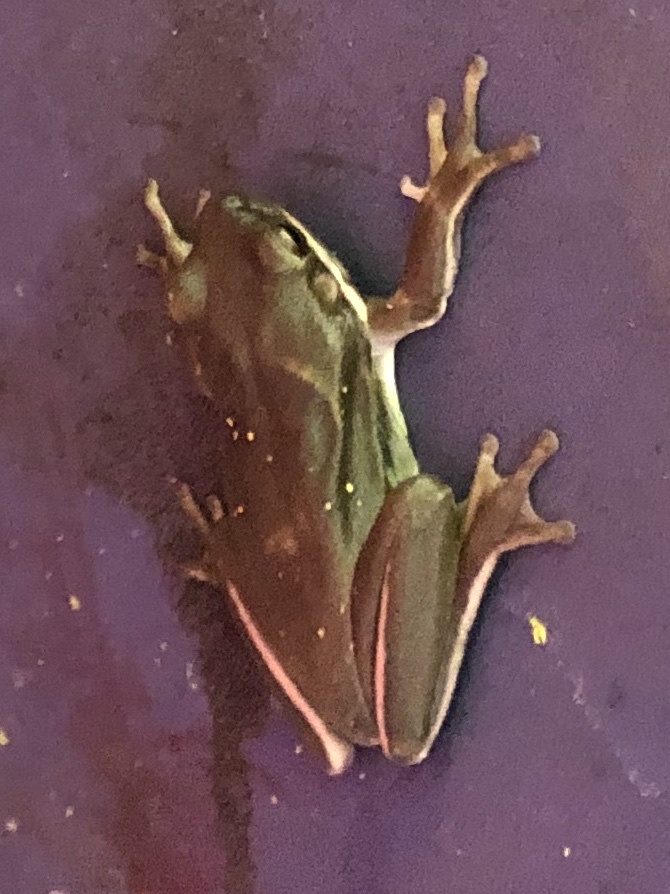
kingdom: Animalia
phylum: Chordata
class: Amphibia
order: Anura
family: Hylidae
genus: Dryophytes
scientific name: Dryophytes cinereus
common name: Green treefrog
